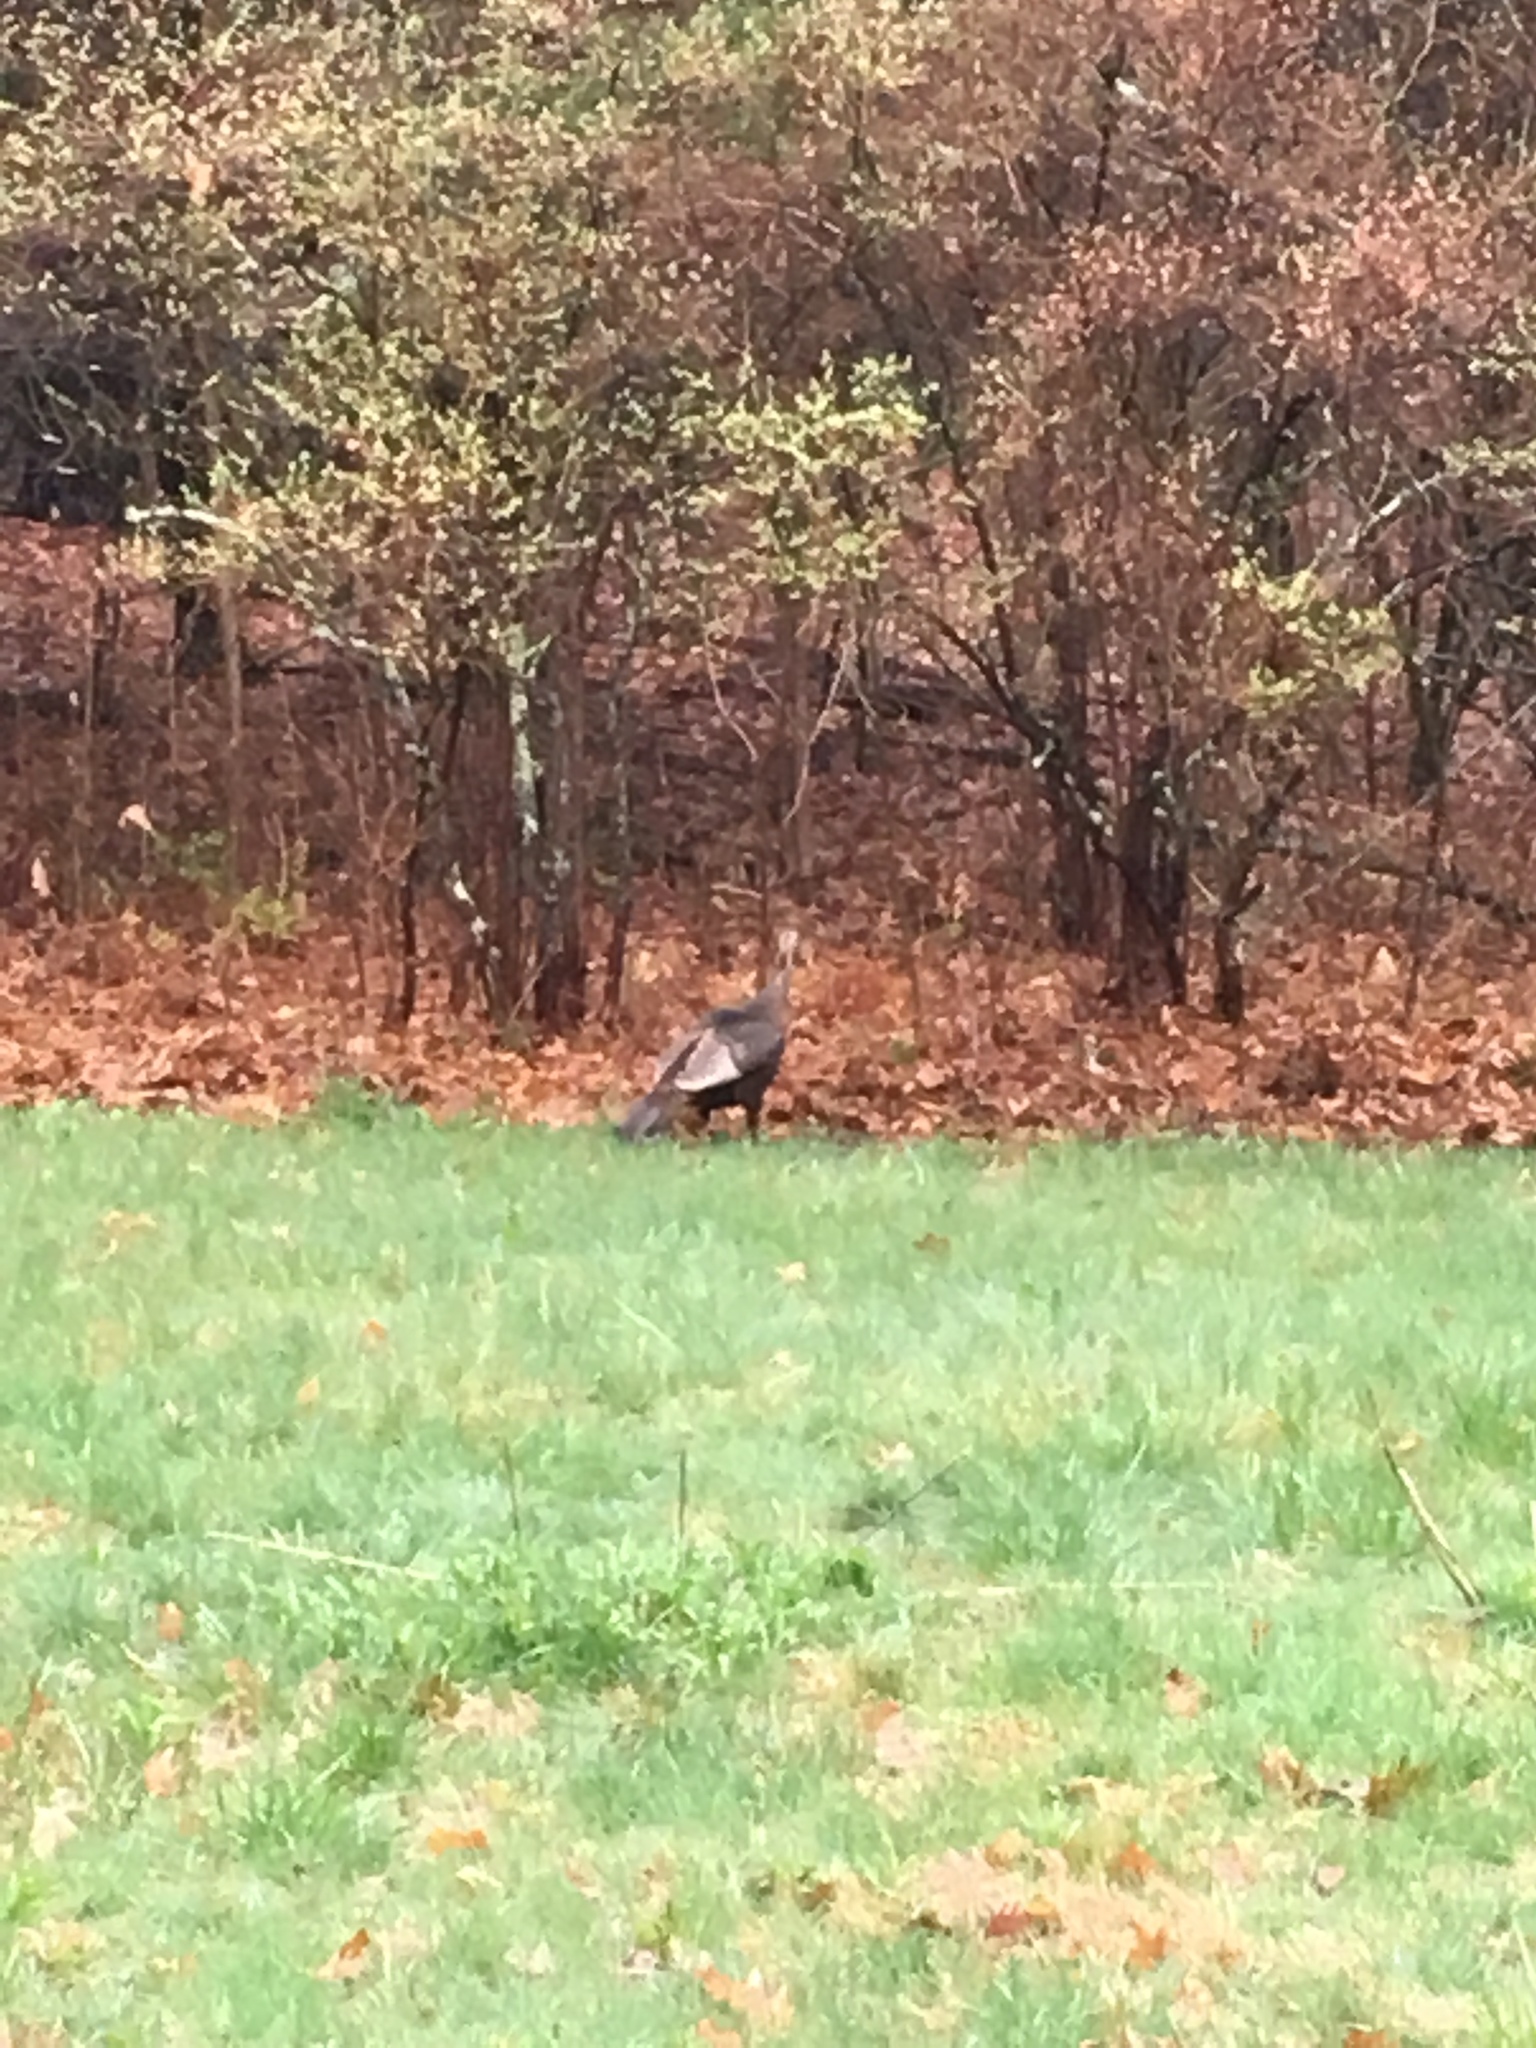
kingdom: Animalia
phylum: Chordata
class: Aves
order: Galliformes
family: Phasianidae
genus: Meleagris
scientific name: Meleagris gallopavo
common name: Wild turkey
